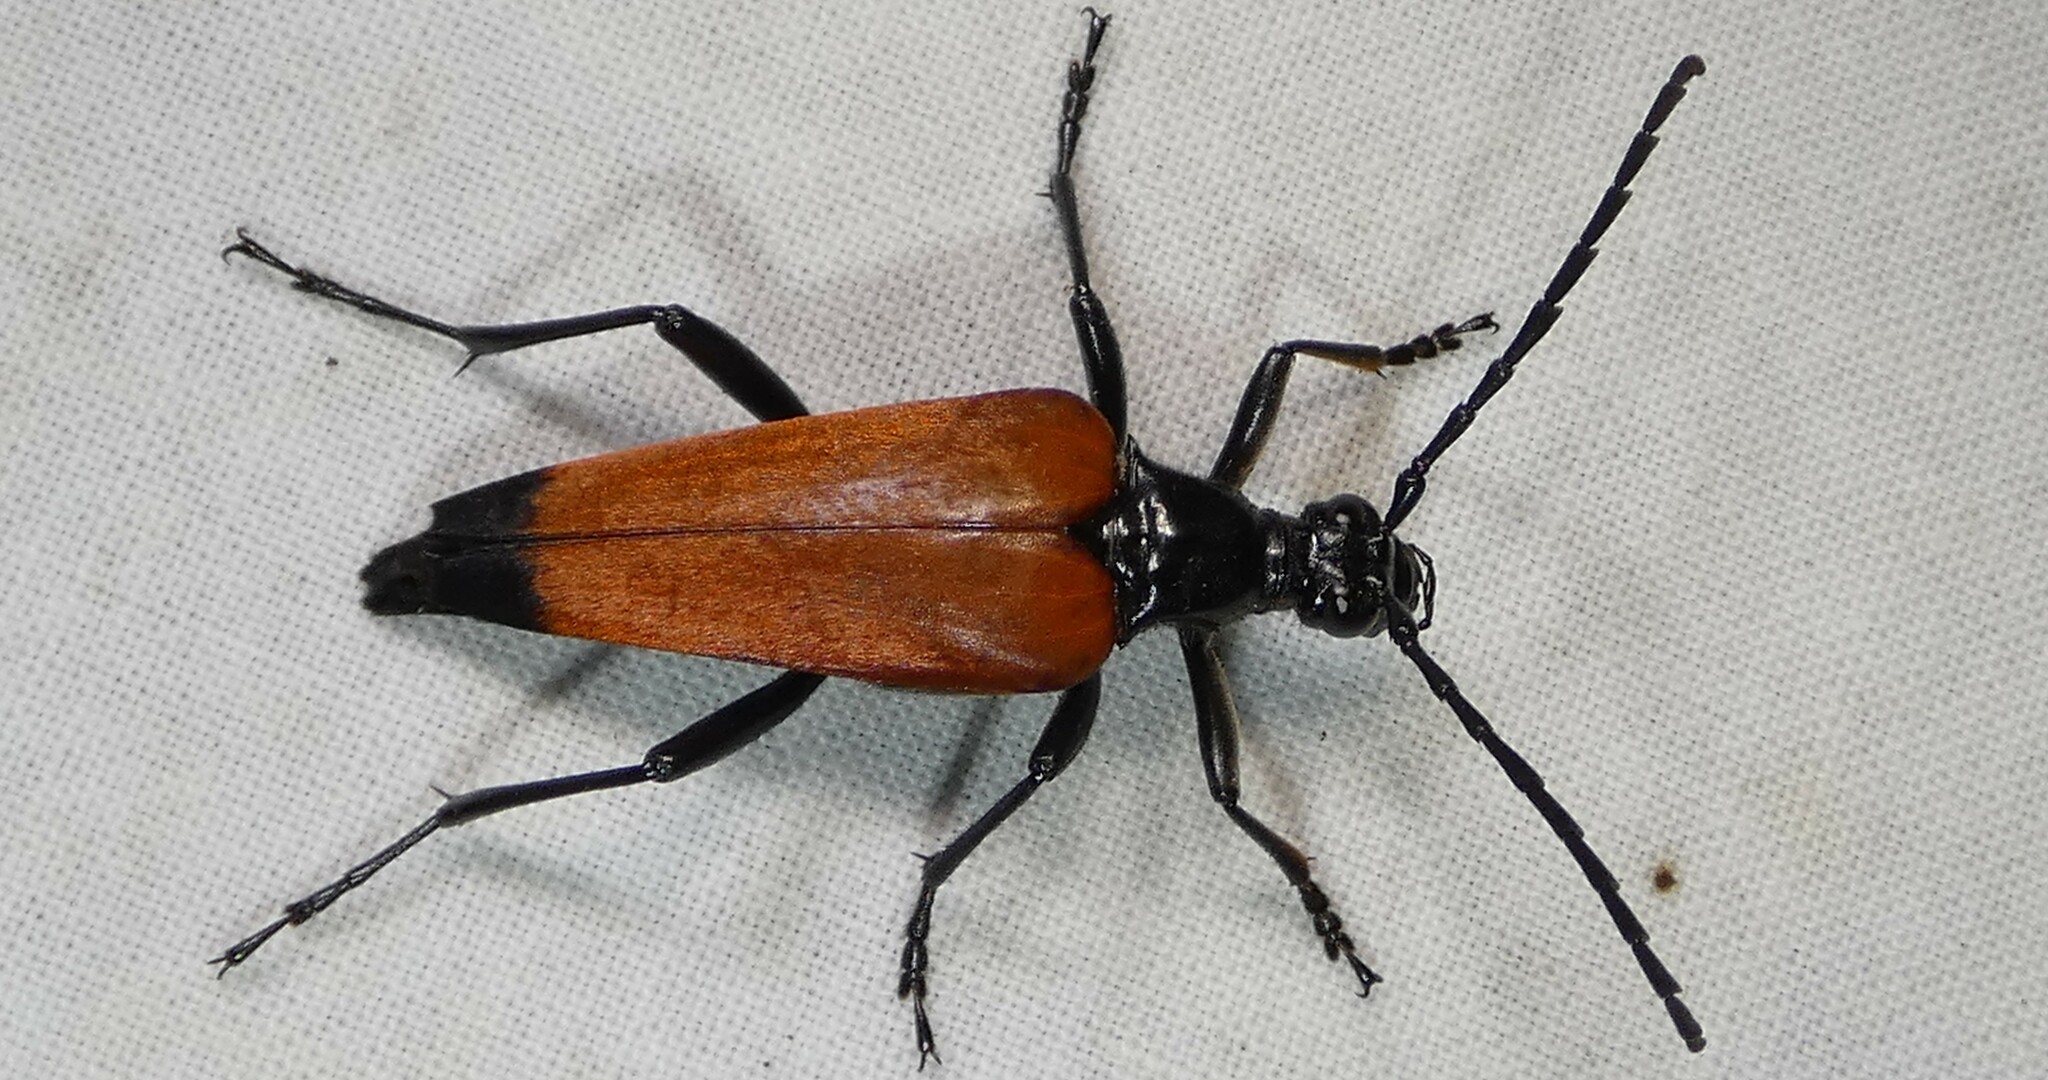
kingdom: Animalia
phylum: Arthropoda
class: Insecta
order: Coleoptera
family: Cerambycidae
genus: Stenelytrana
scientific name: Stenelytrana emarginata
